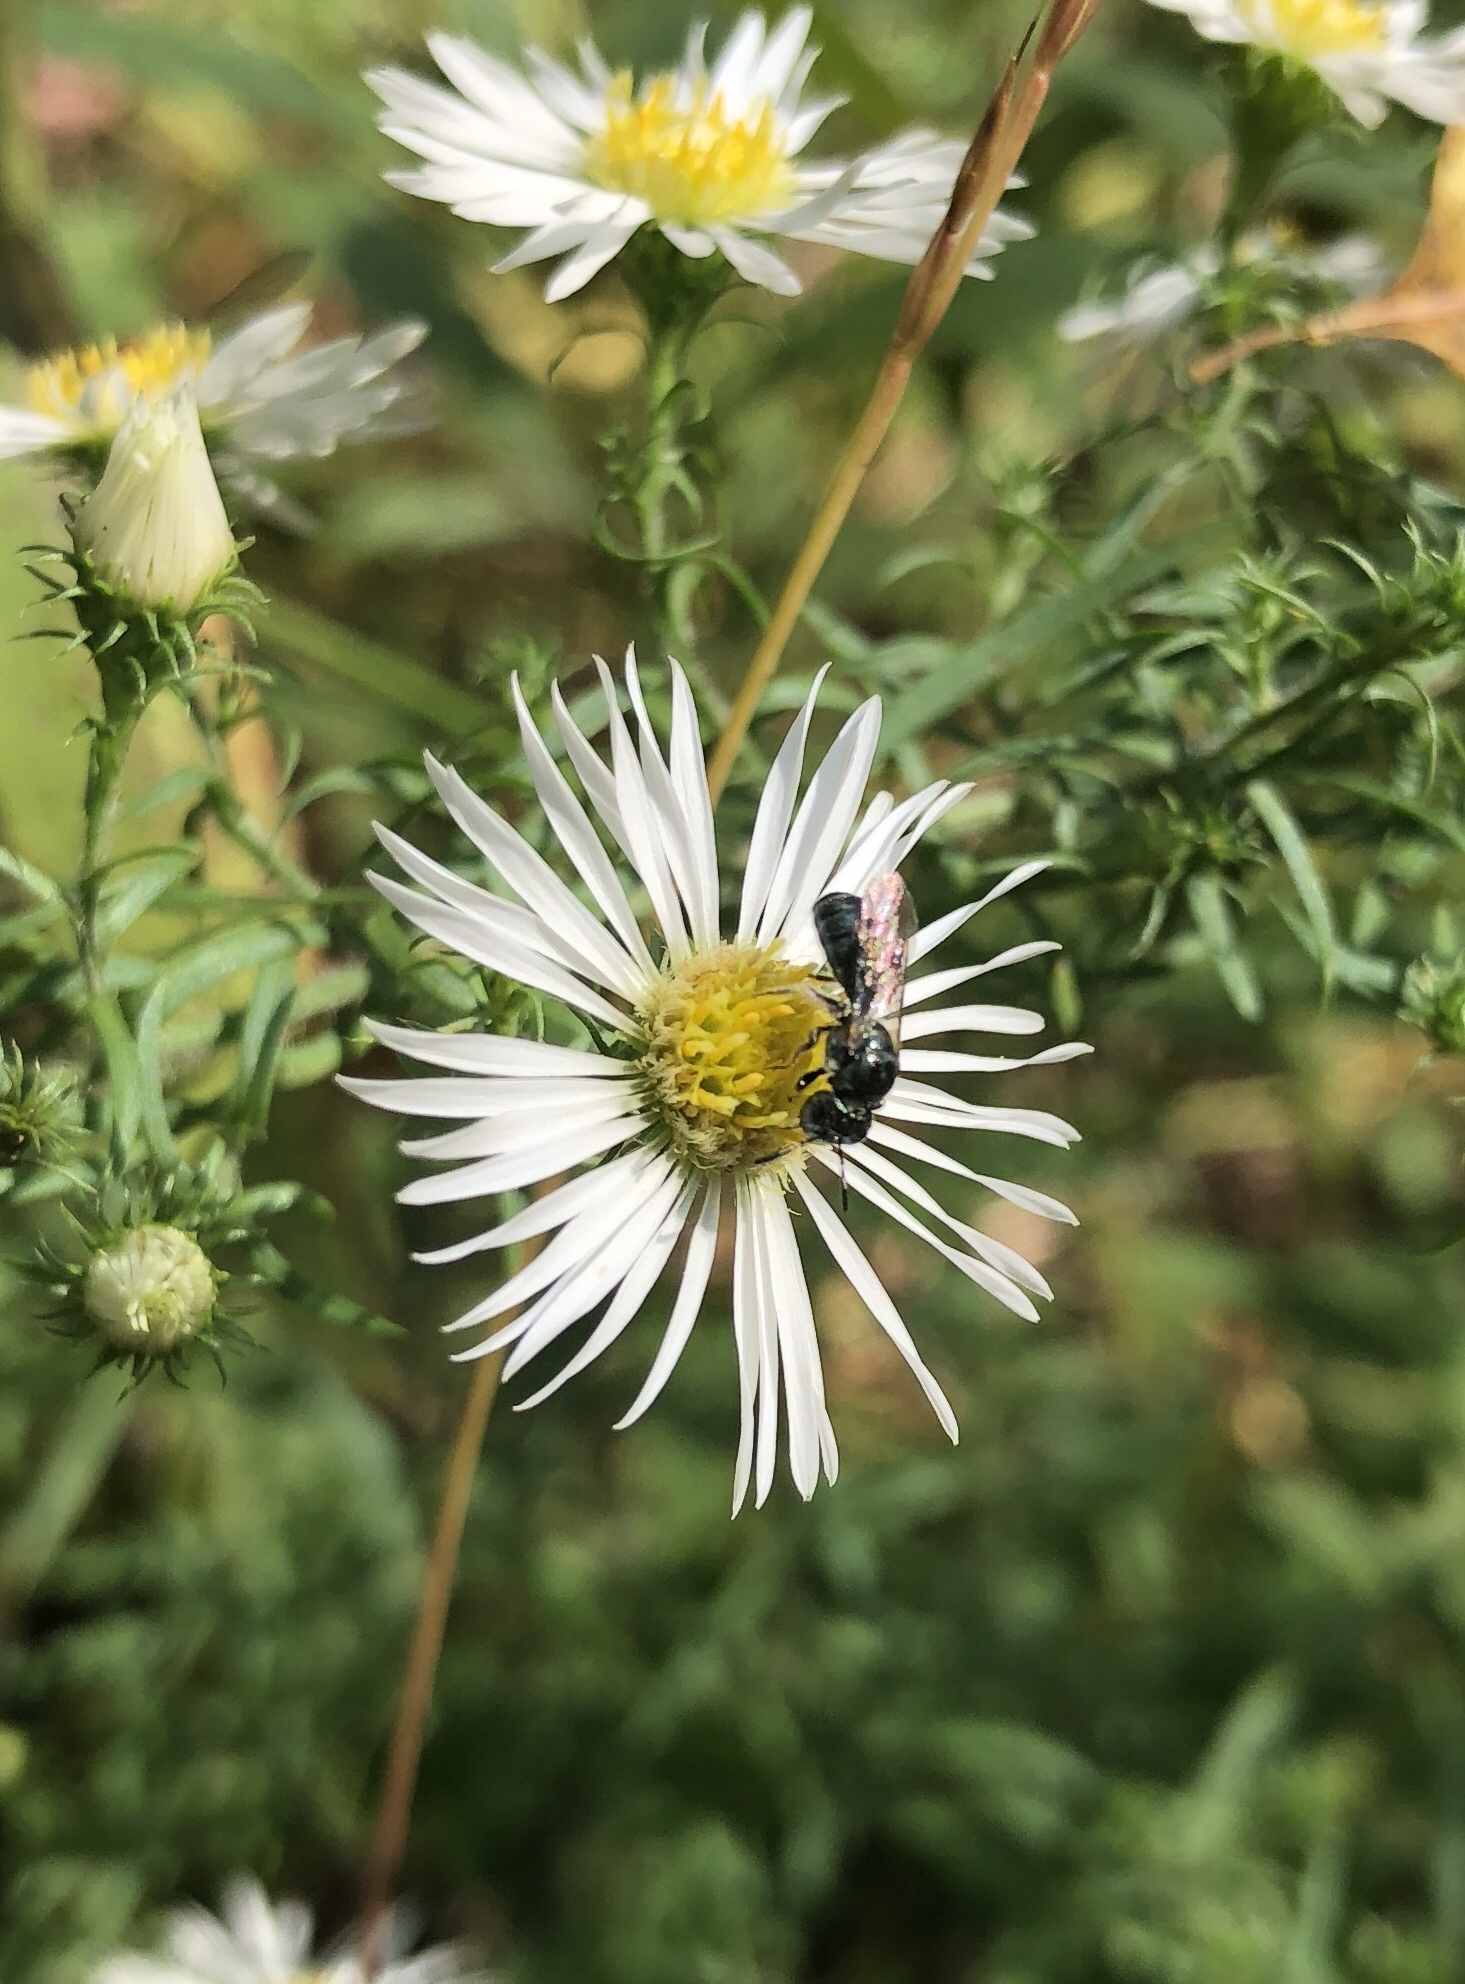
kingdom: Animalia
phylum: Arthropoda
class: Insecta
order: Hymenoptera
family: Apidae
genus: Zadontomerus
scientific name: Zadontomerus
